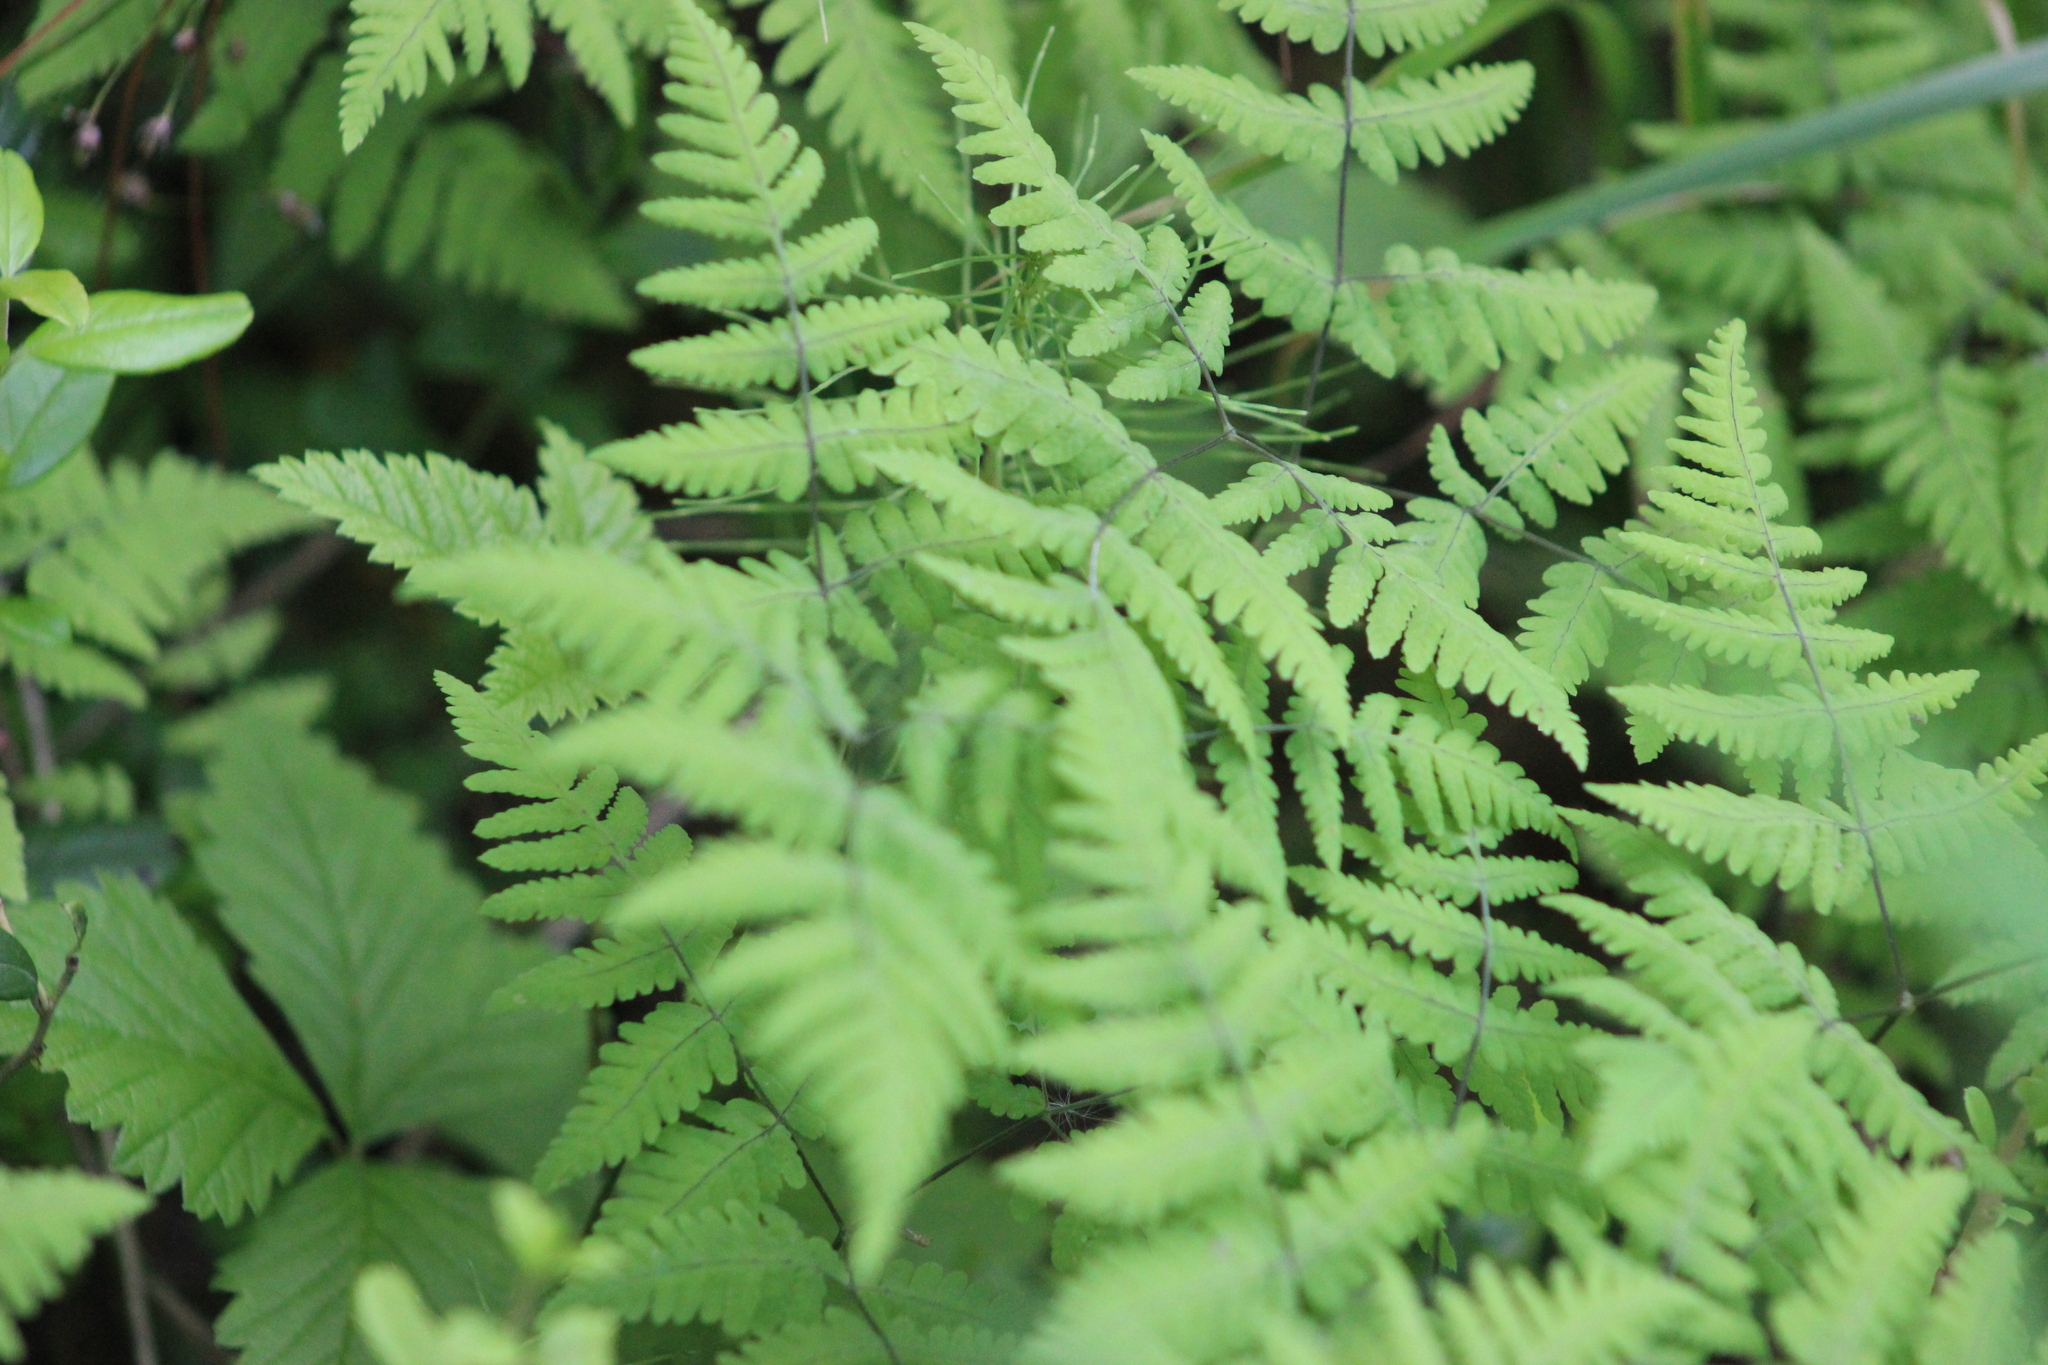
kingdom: Plantae
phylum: Tracheophyta
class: Polypodiopsida
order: Polypodiales
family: Cystopteridaceae
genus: Gymnocarpium
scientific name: Gymnocarpium dryopteris
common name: Oak fern
